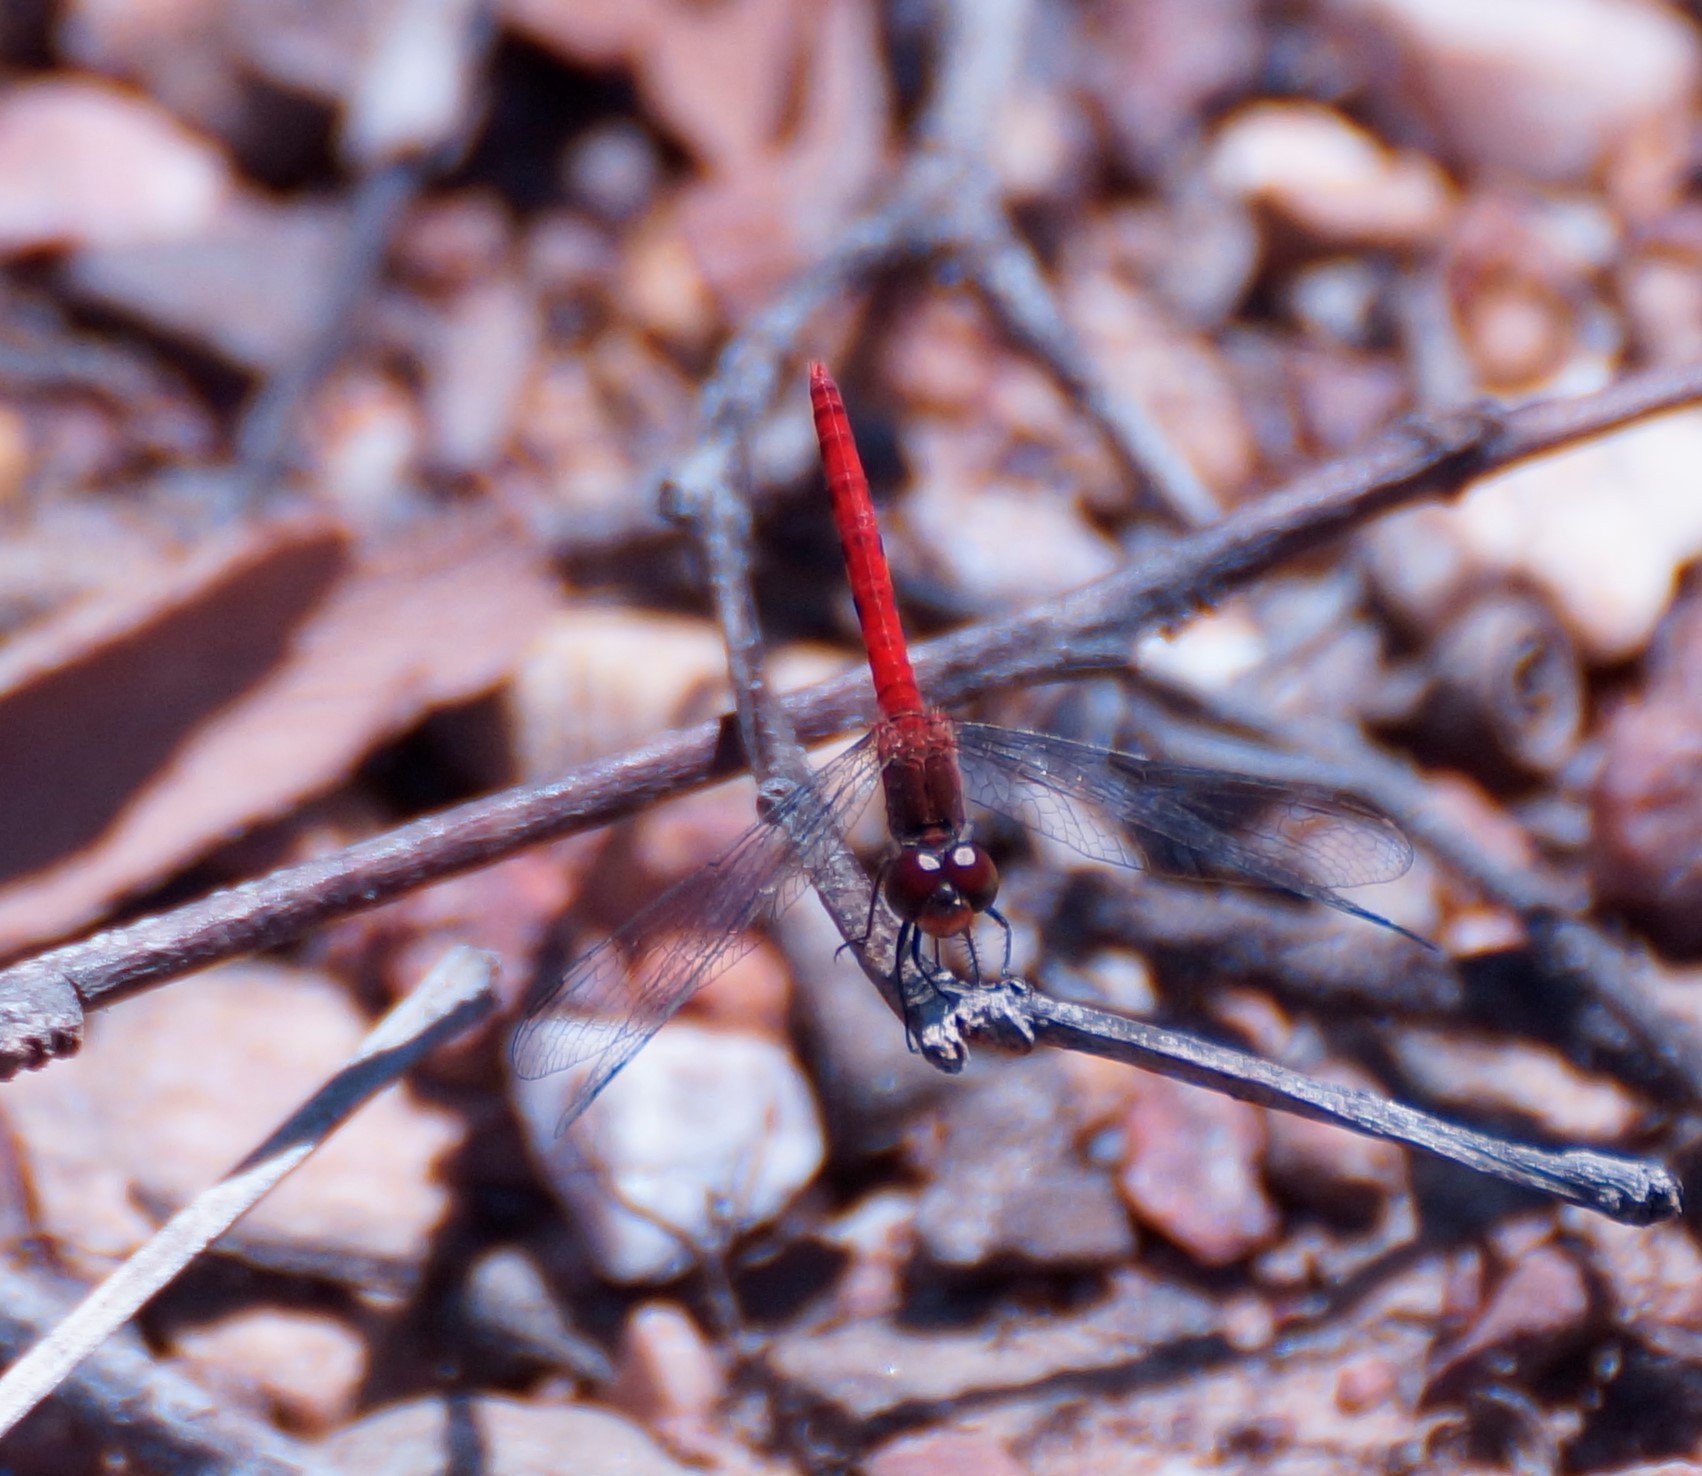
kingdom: Animalia
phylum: Arthropoda
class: Insecta
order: Odonata
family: Libellulidae
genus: Nannodiplax
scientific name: Nannodiplax rubra
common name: Pygmy percher
